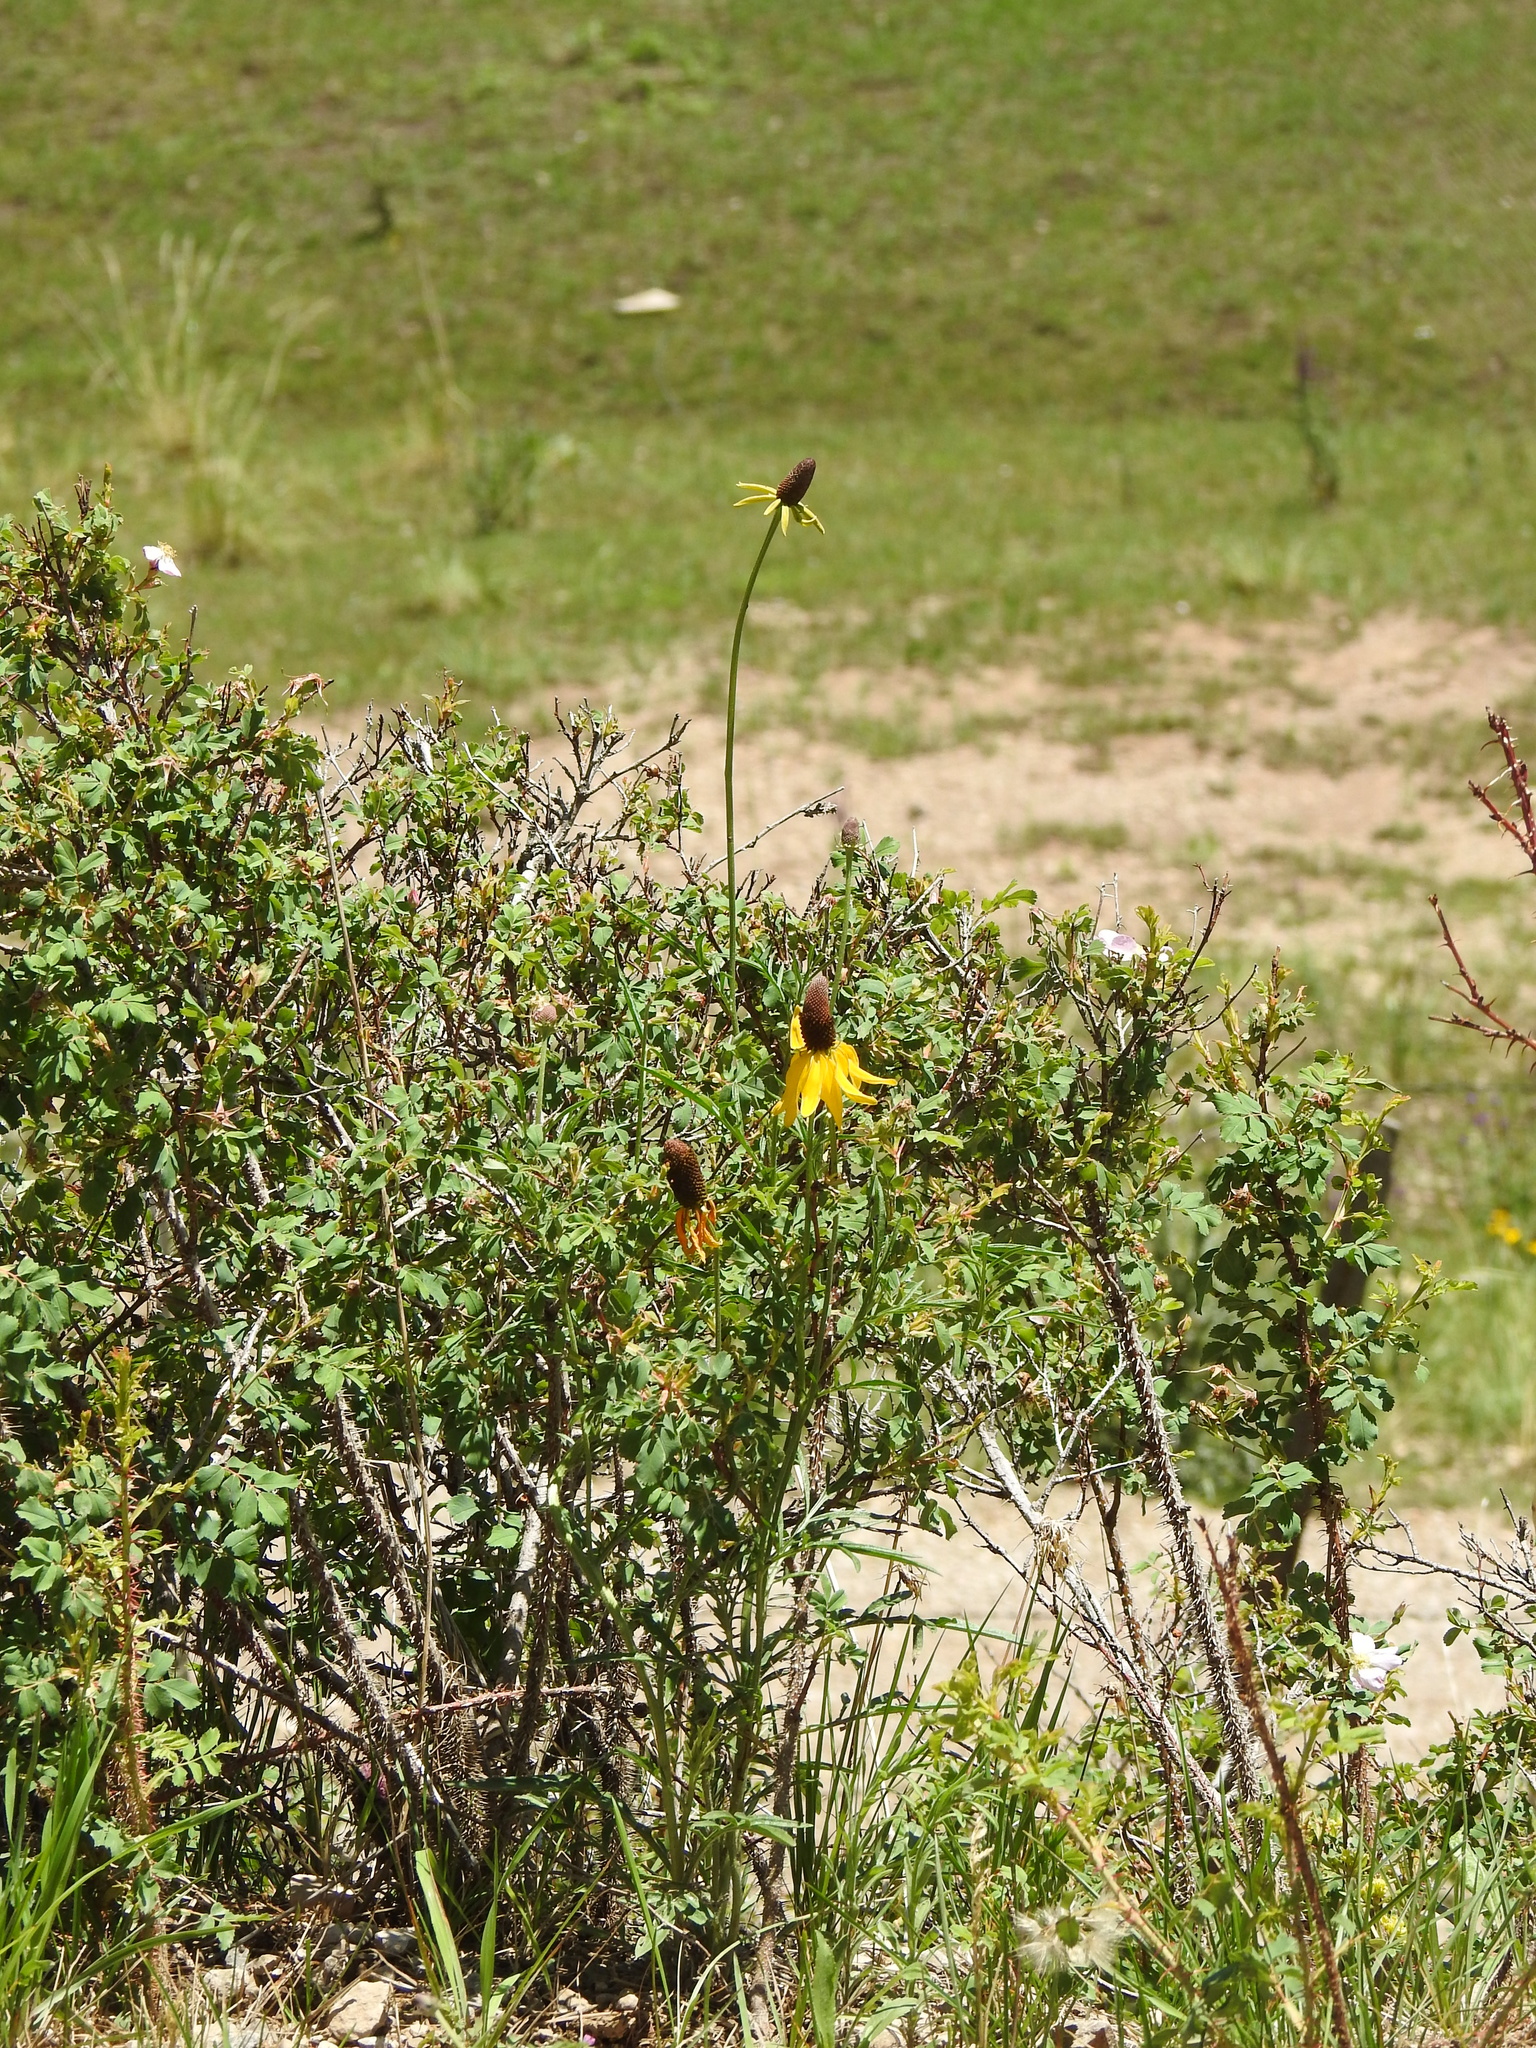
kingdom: Plantae
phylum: Tracheophyta
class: Magnoliopsida
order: Asterales
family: Asteraceae
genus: Ratibida
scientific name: Ratibida columnifera
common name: Prairie coneflower
